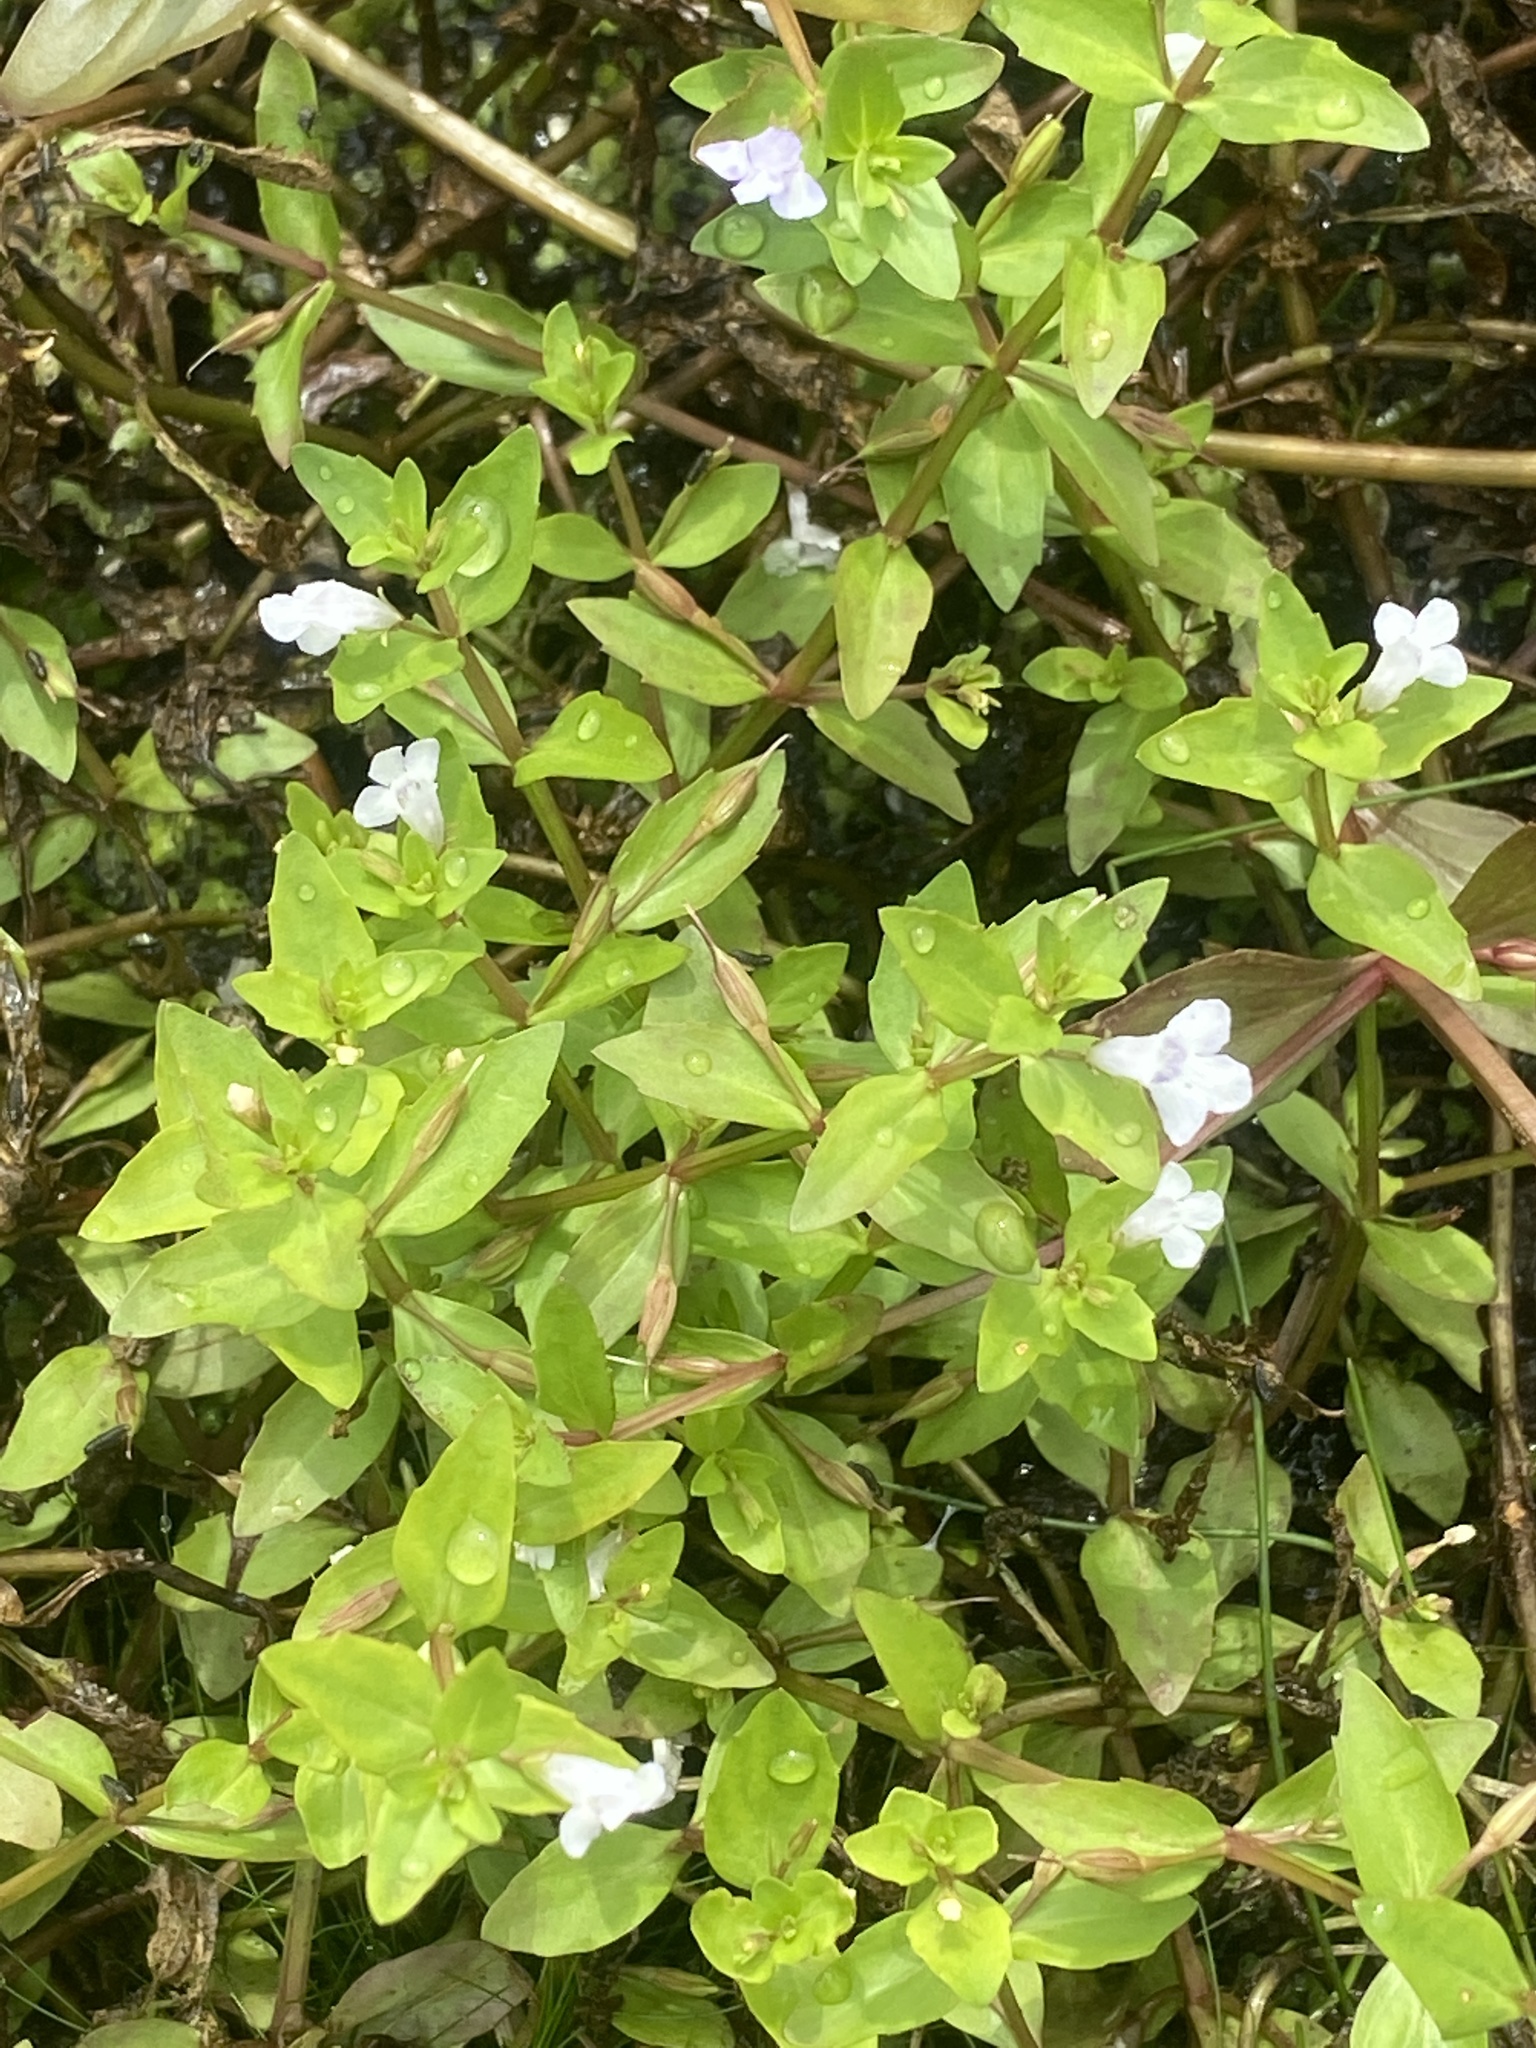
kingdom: Plantae
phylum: Tracheophyta
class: Magnoliopsida
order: Lamiales
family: Linderniaceae
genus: Lindernia
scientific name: Lindernia dubia
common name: Annual false pimpernel
